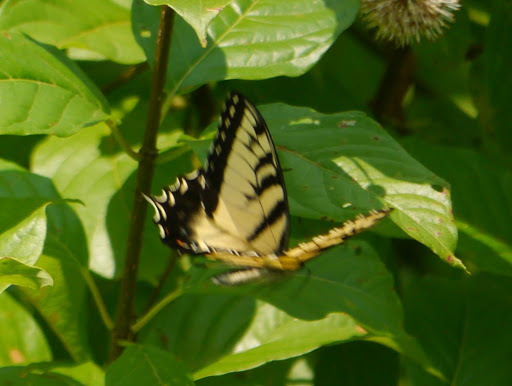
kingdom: Animalia
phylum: Arthropoda
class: Insecta
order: Lepidoptera
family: Papilionidae
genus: Papilio
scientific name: Papilio glaucus
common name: Tiger swallowtail
